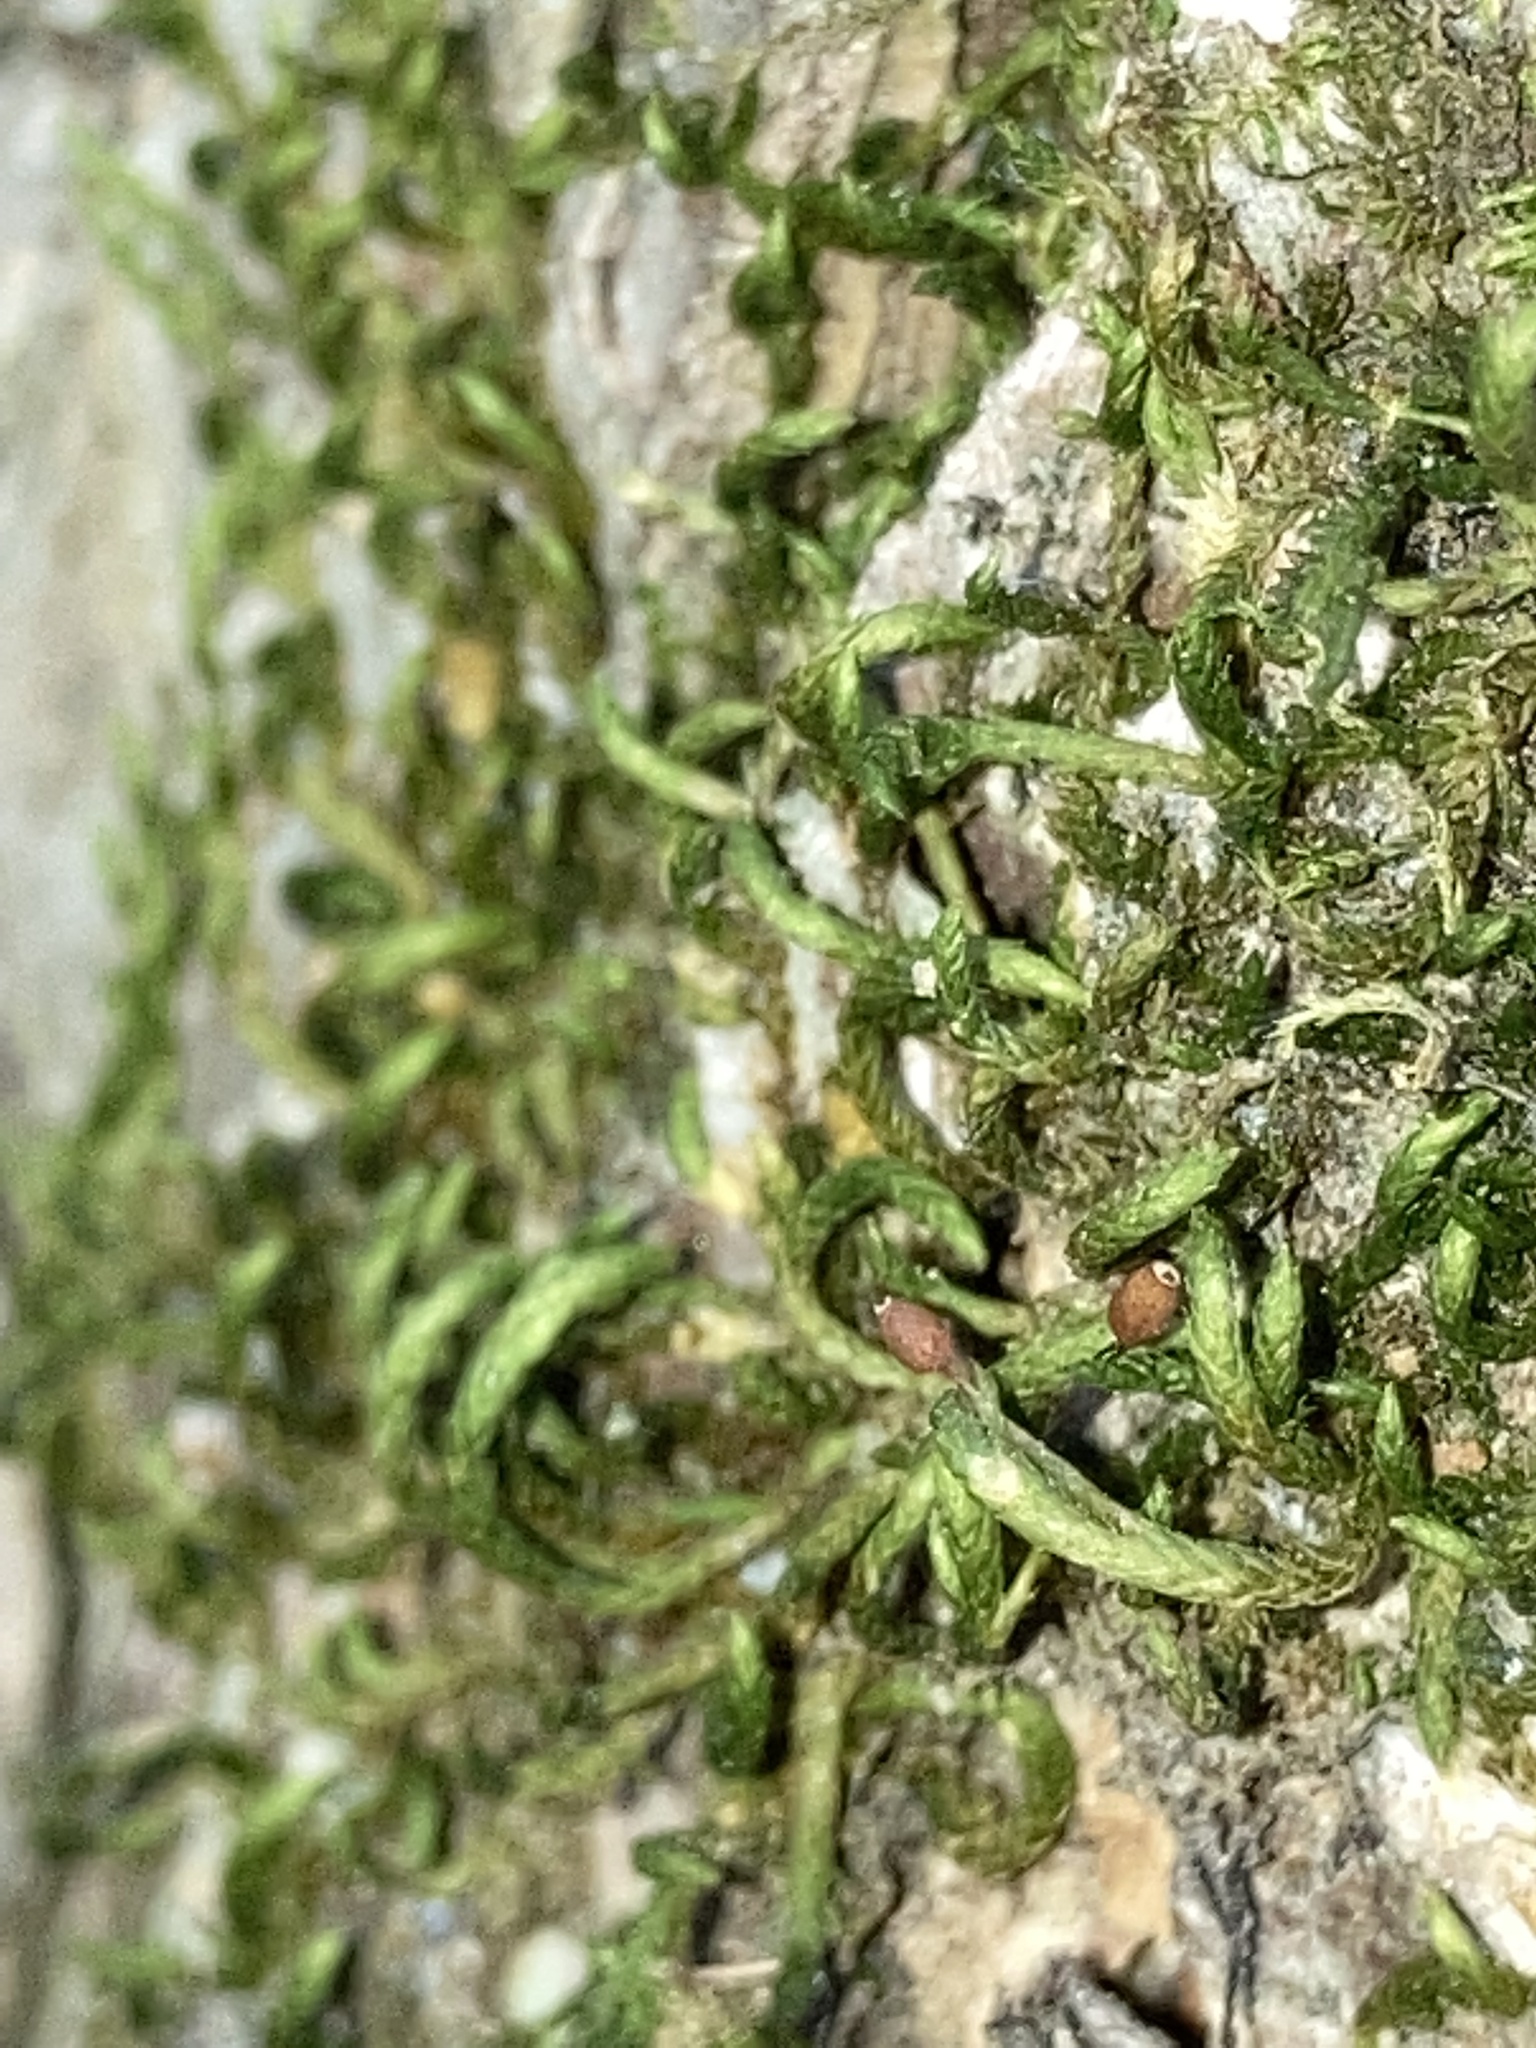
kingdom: Plantae
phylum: Bryophyta
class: Bryopsida
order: Hypnales
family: Leucodontaceae
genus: Leucodon
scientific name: Leucodon julaceus
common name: Smooth hook moss
